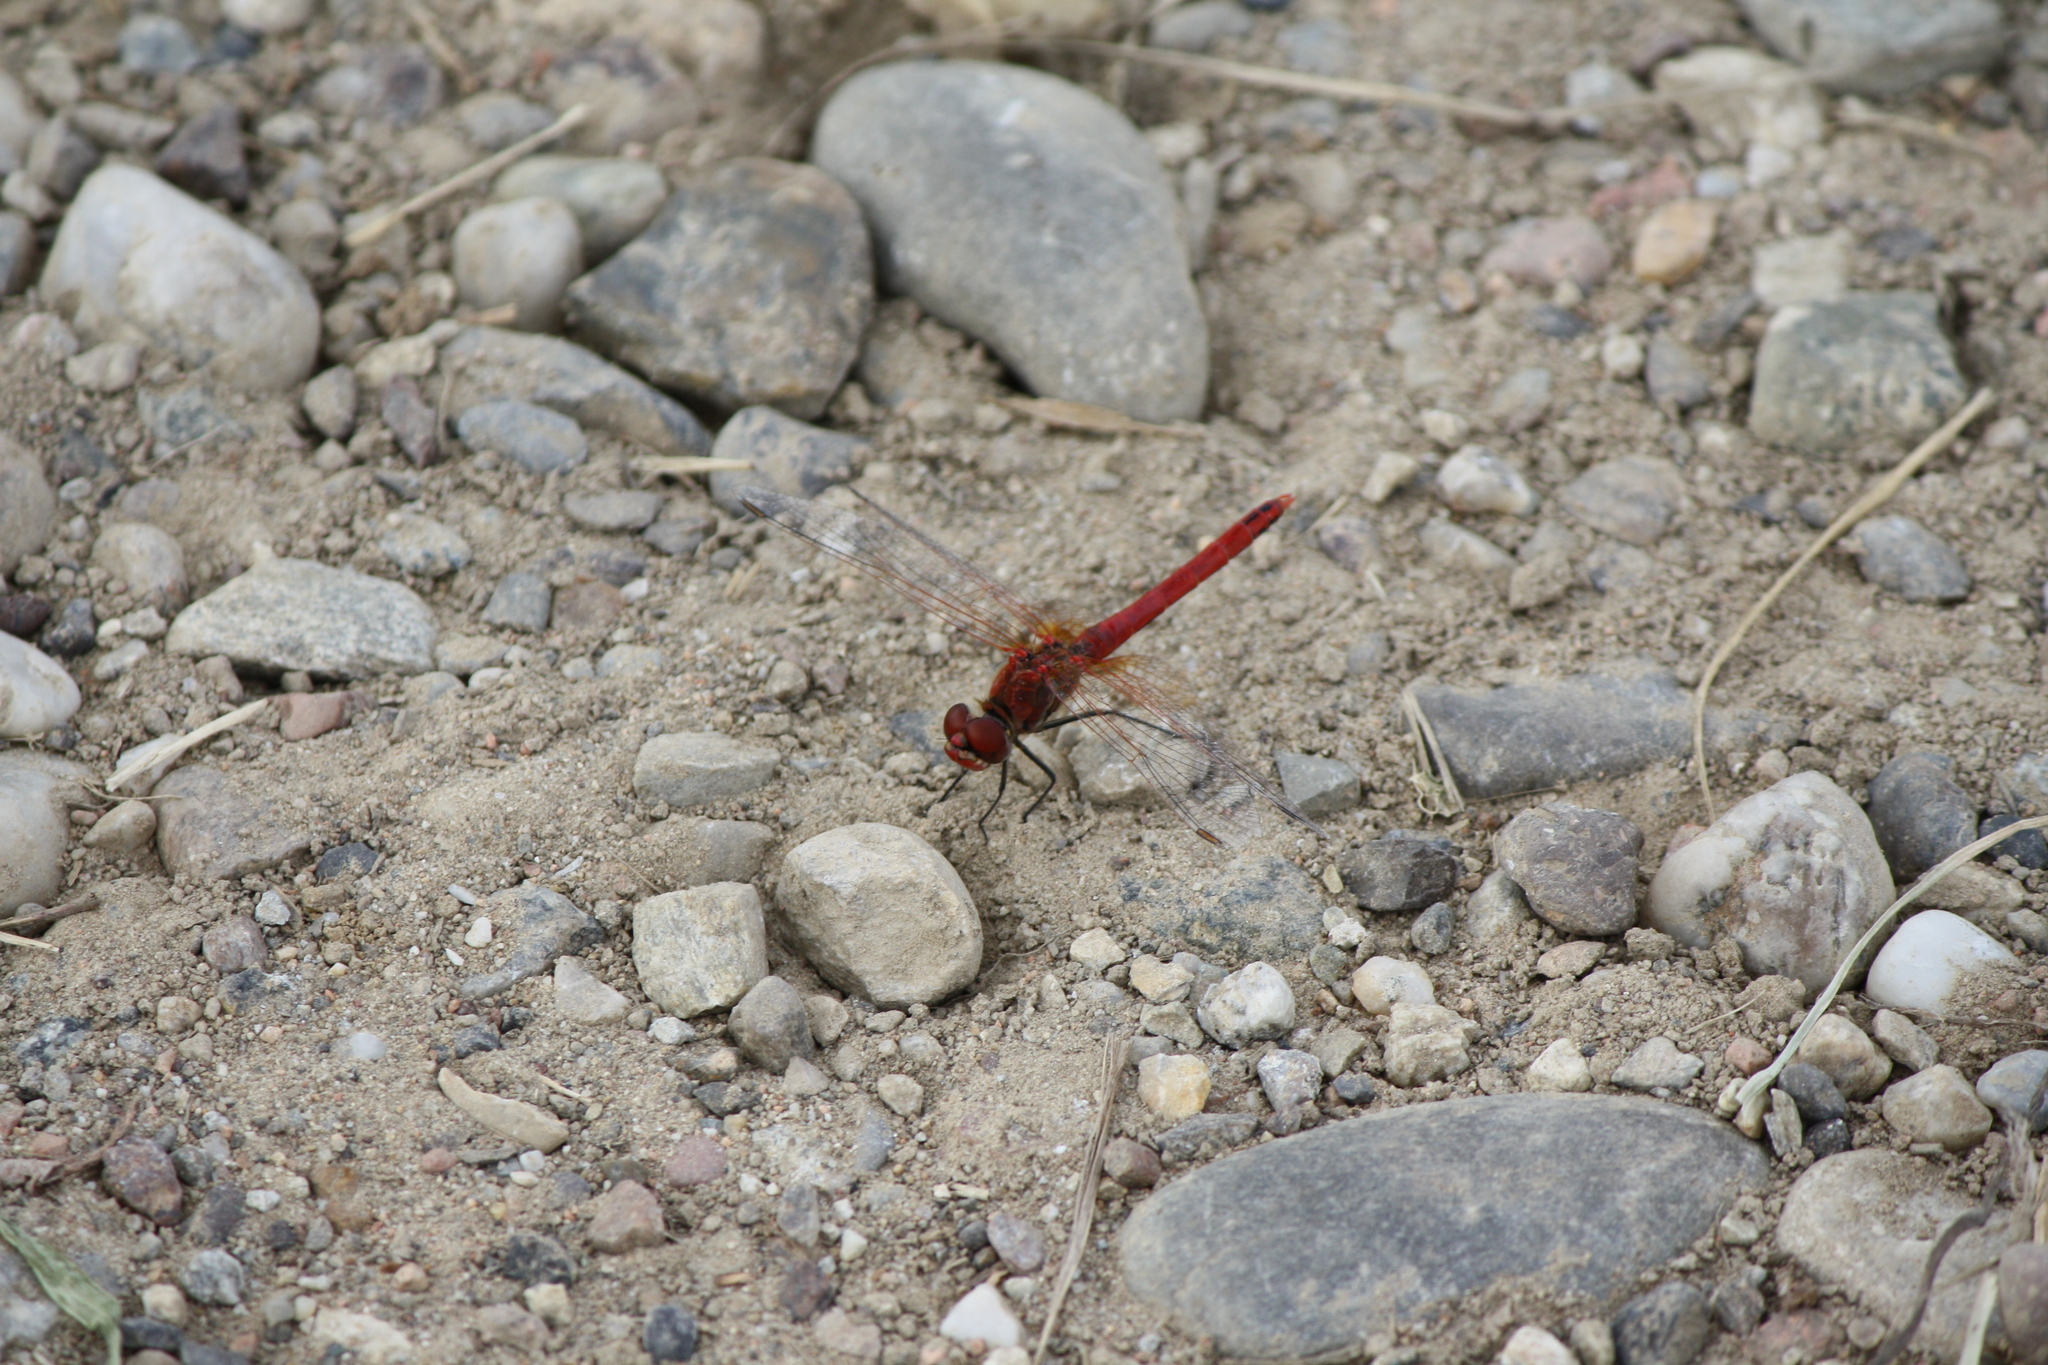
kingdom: Animalia
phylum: Arthropoda
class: Insecta
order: Odonata
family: Libellulidae
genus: Sympetrum
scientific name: Sympetrum fonscolombii
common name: Red-veined darter
